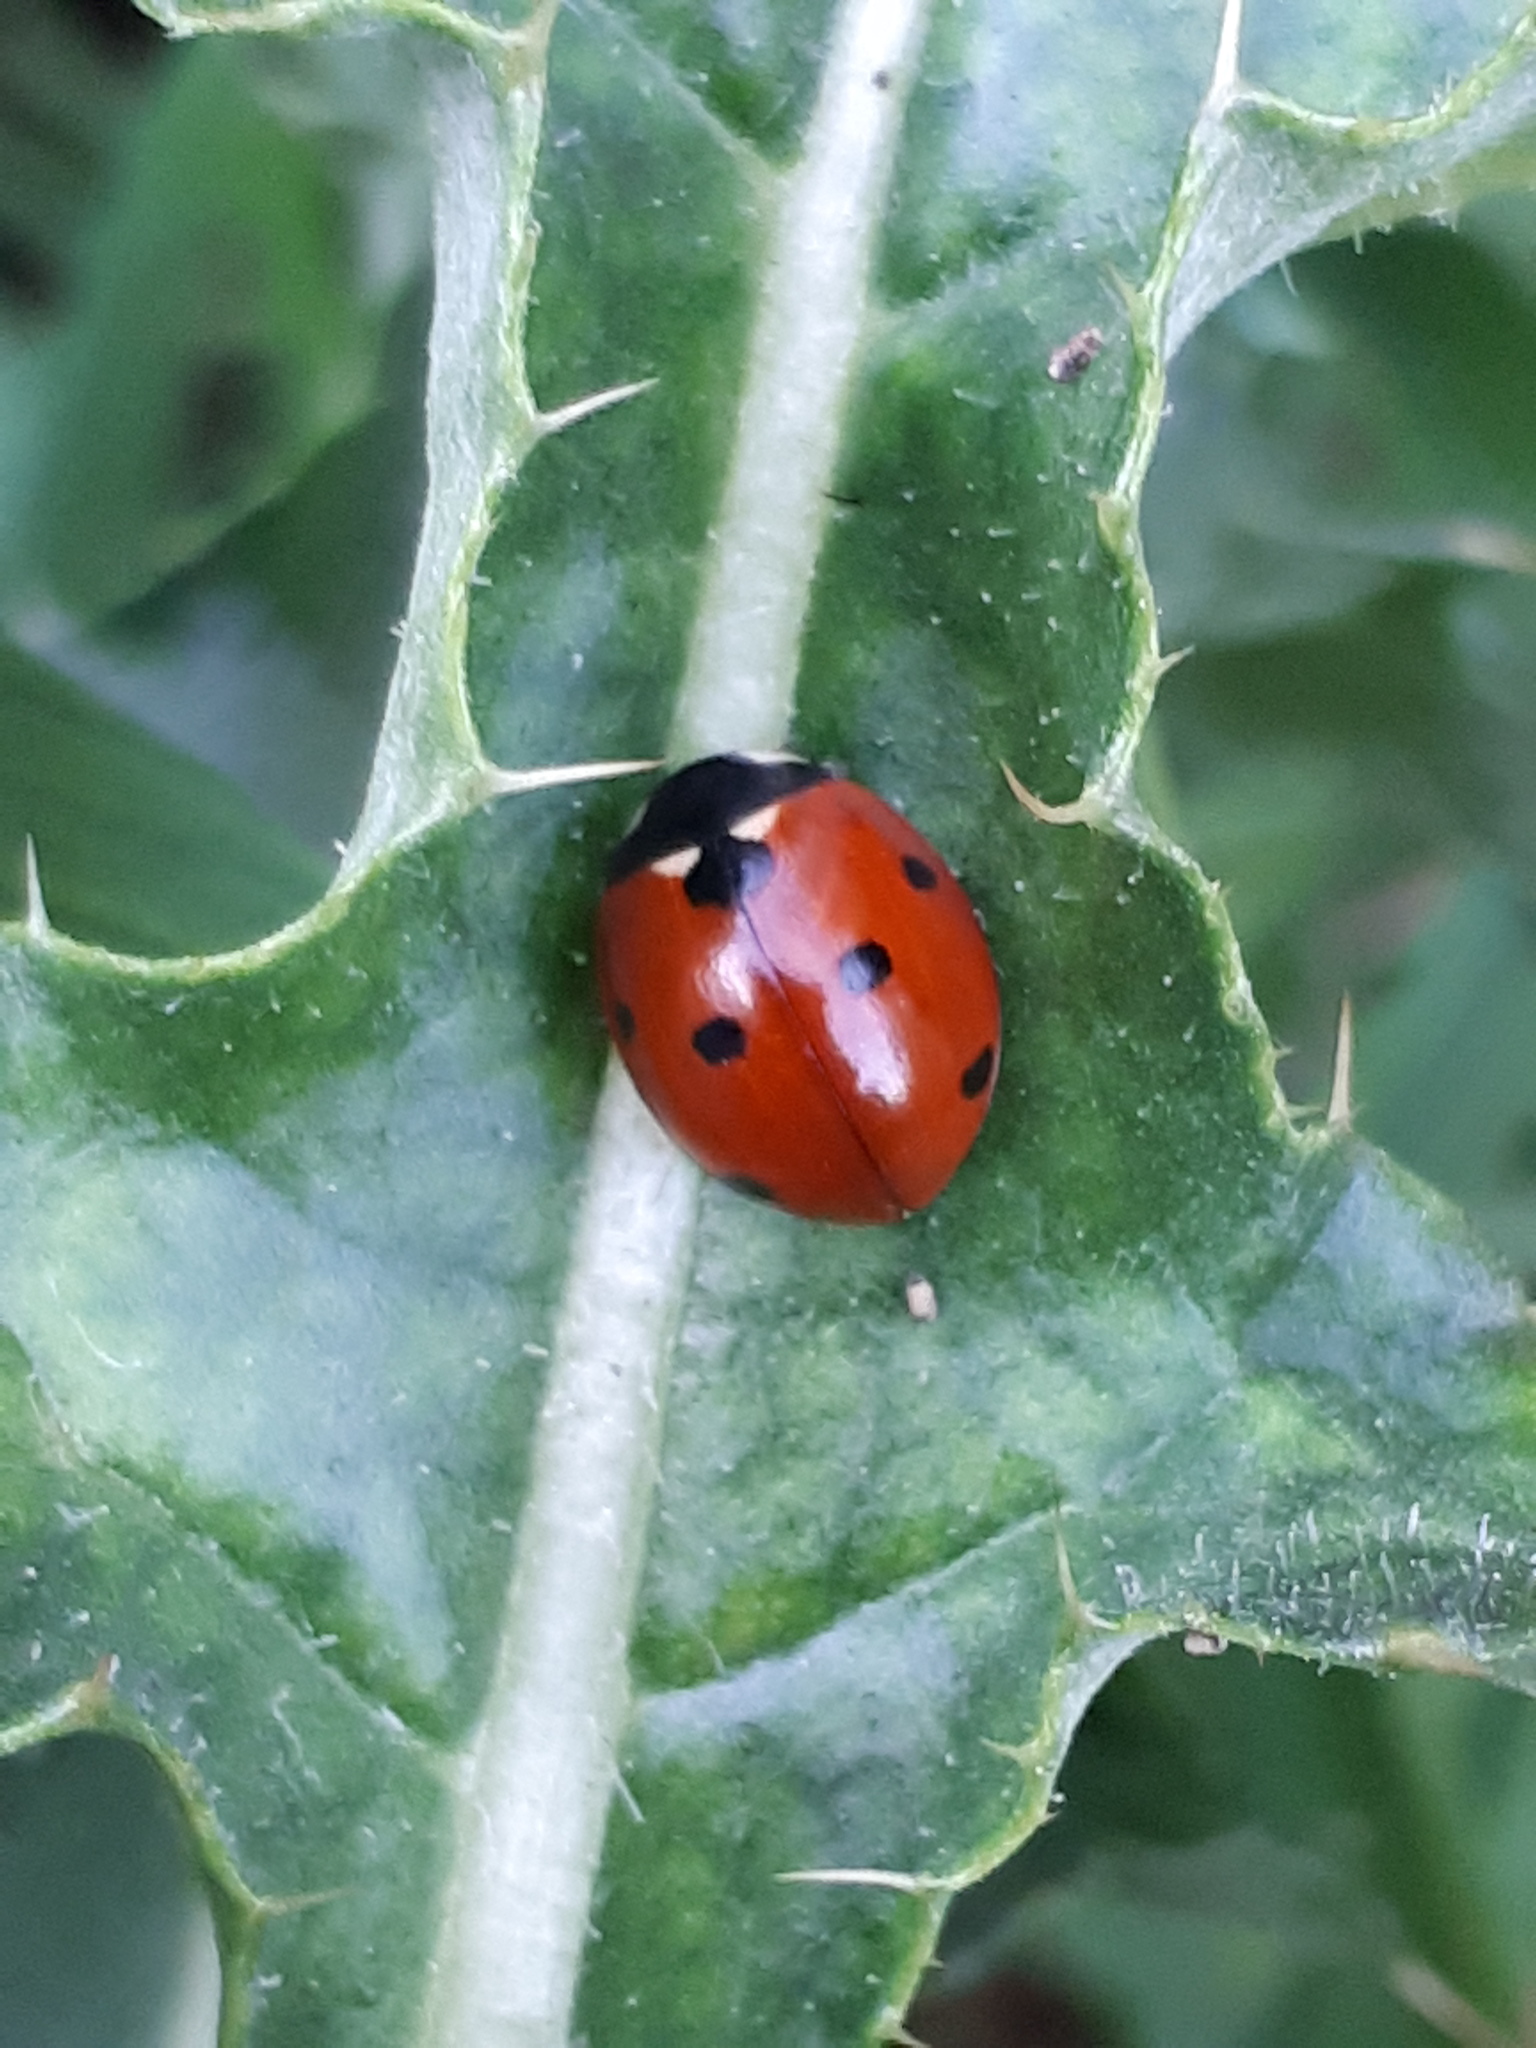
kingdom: Animalia
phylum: Arthropoda
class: Insecta
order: Coleoptera
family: Coccinellidae
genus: Coccinella
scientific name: Coccinella septempunctata
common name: Sevenspotted lady beetle
